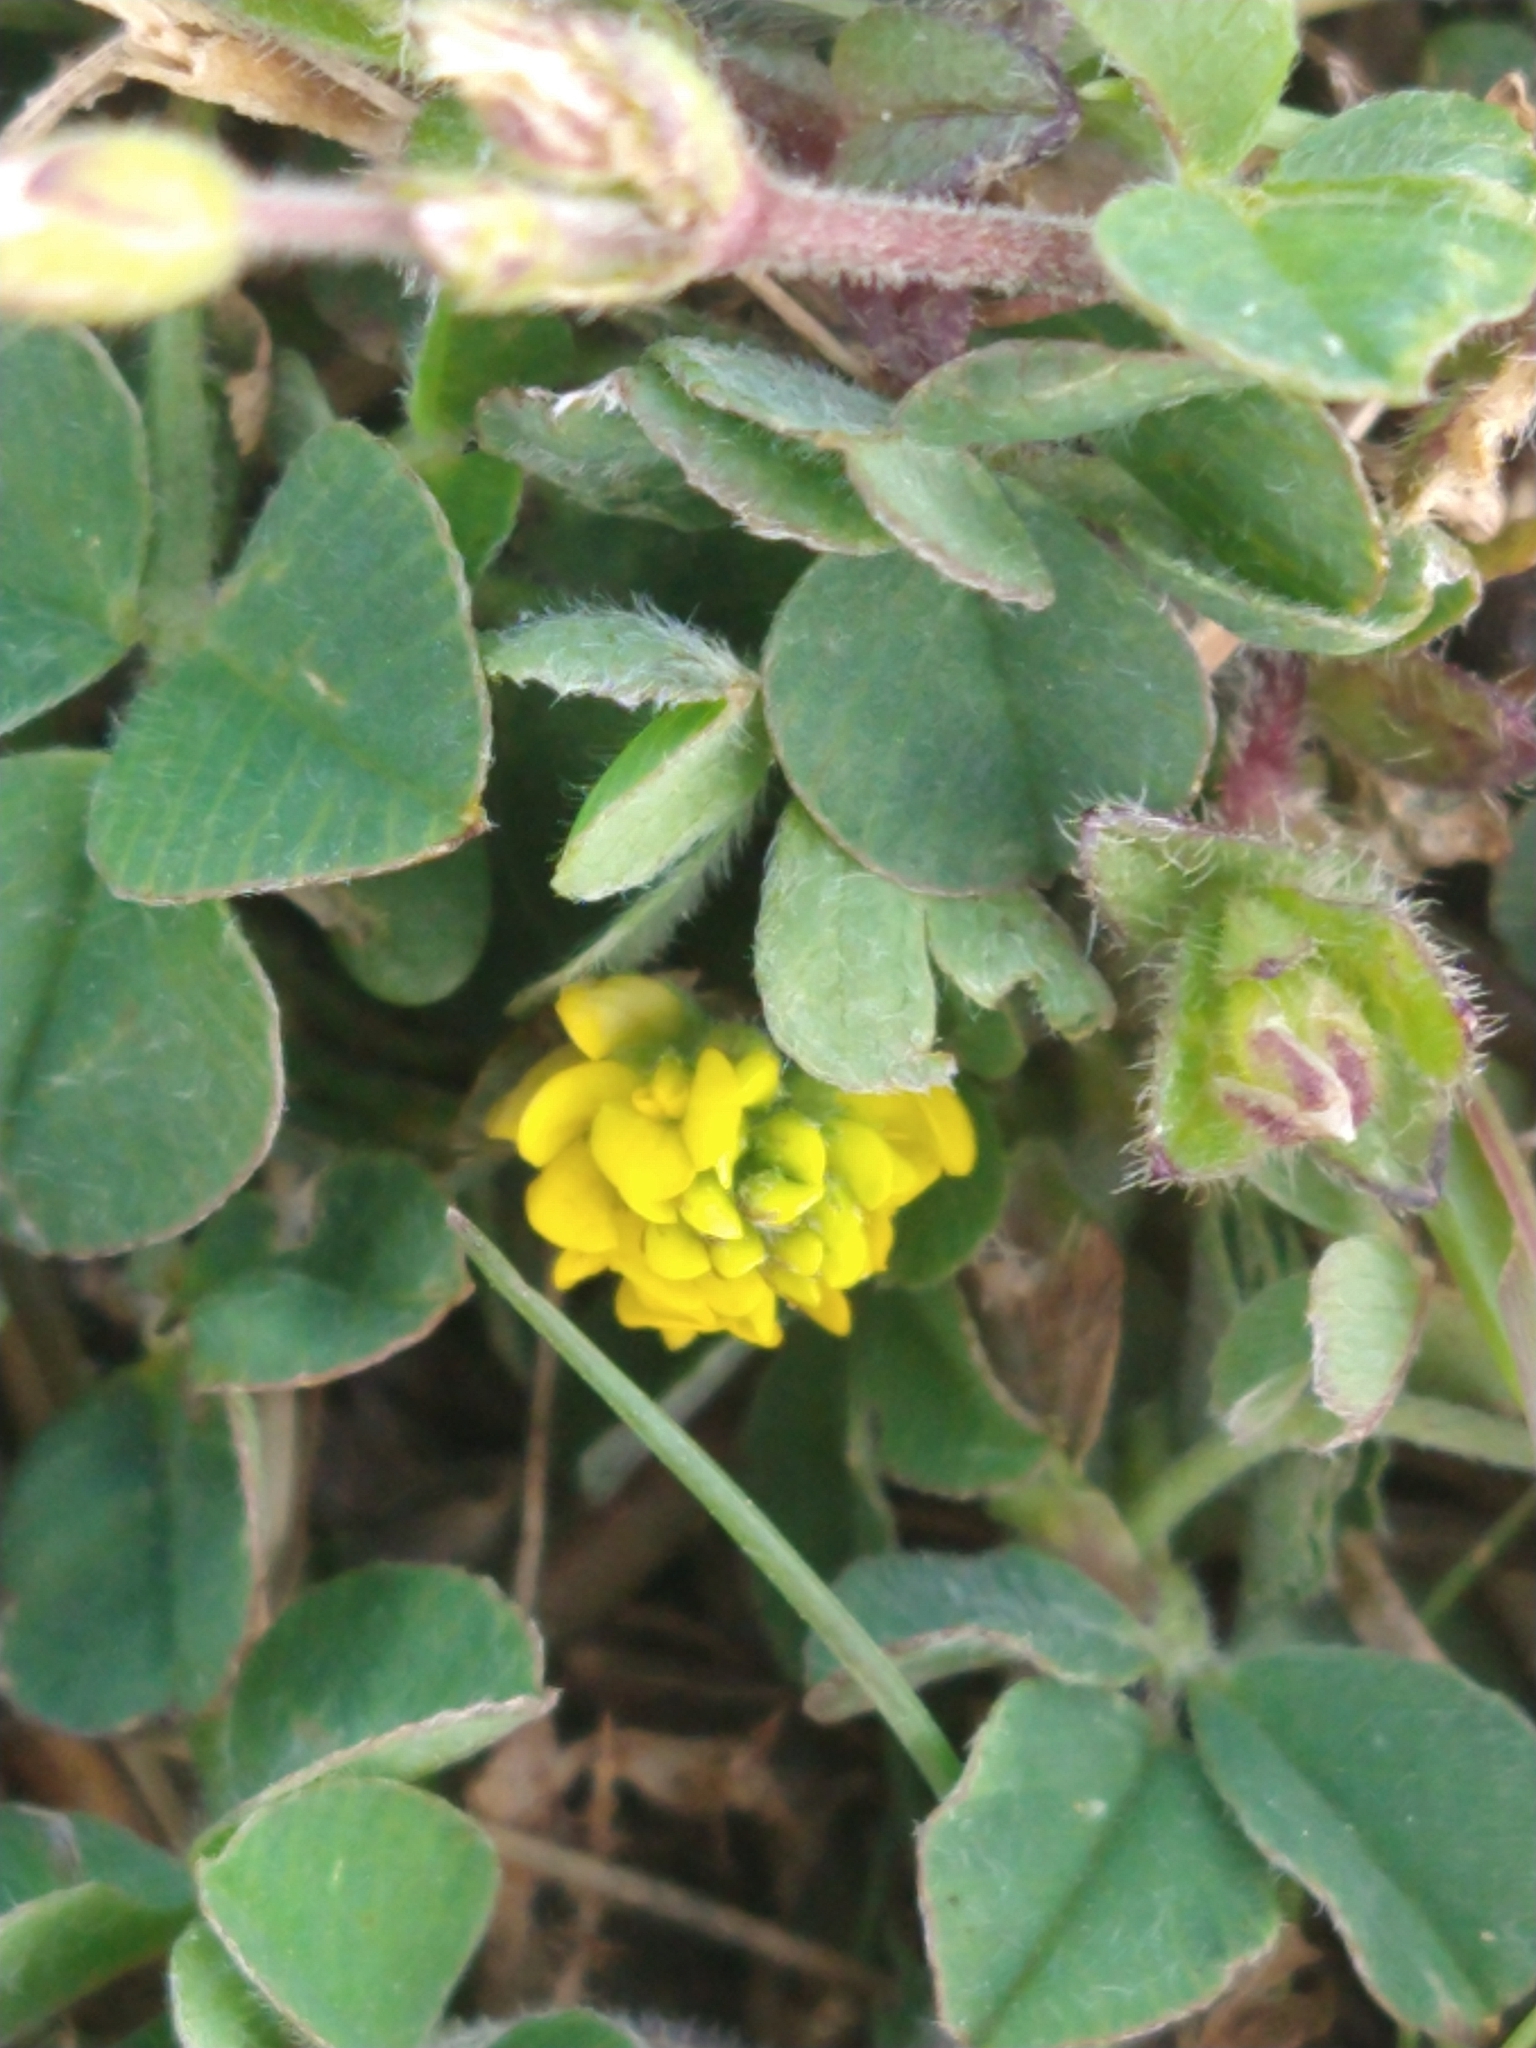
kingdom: Plantae
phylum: Tracheophyta
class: Magnoliopsida
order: Fabales
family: Fabaceae
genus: Medicago
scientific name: Medicago lupulina
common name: Black medick
